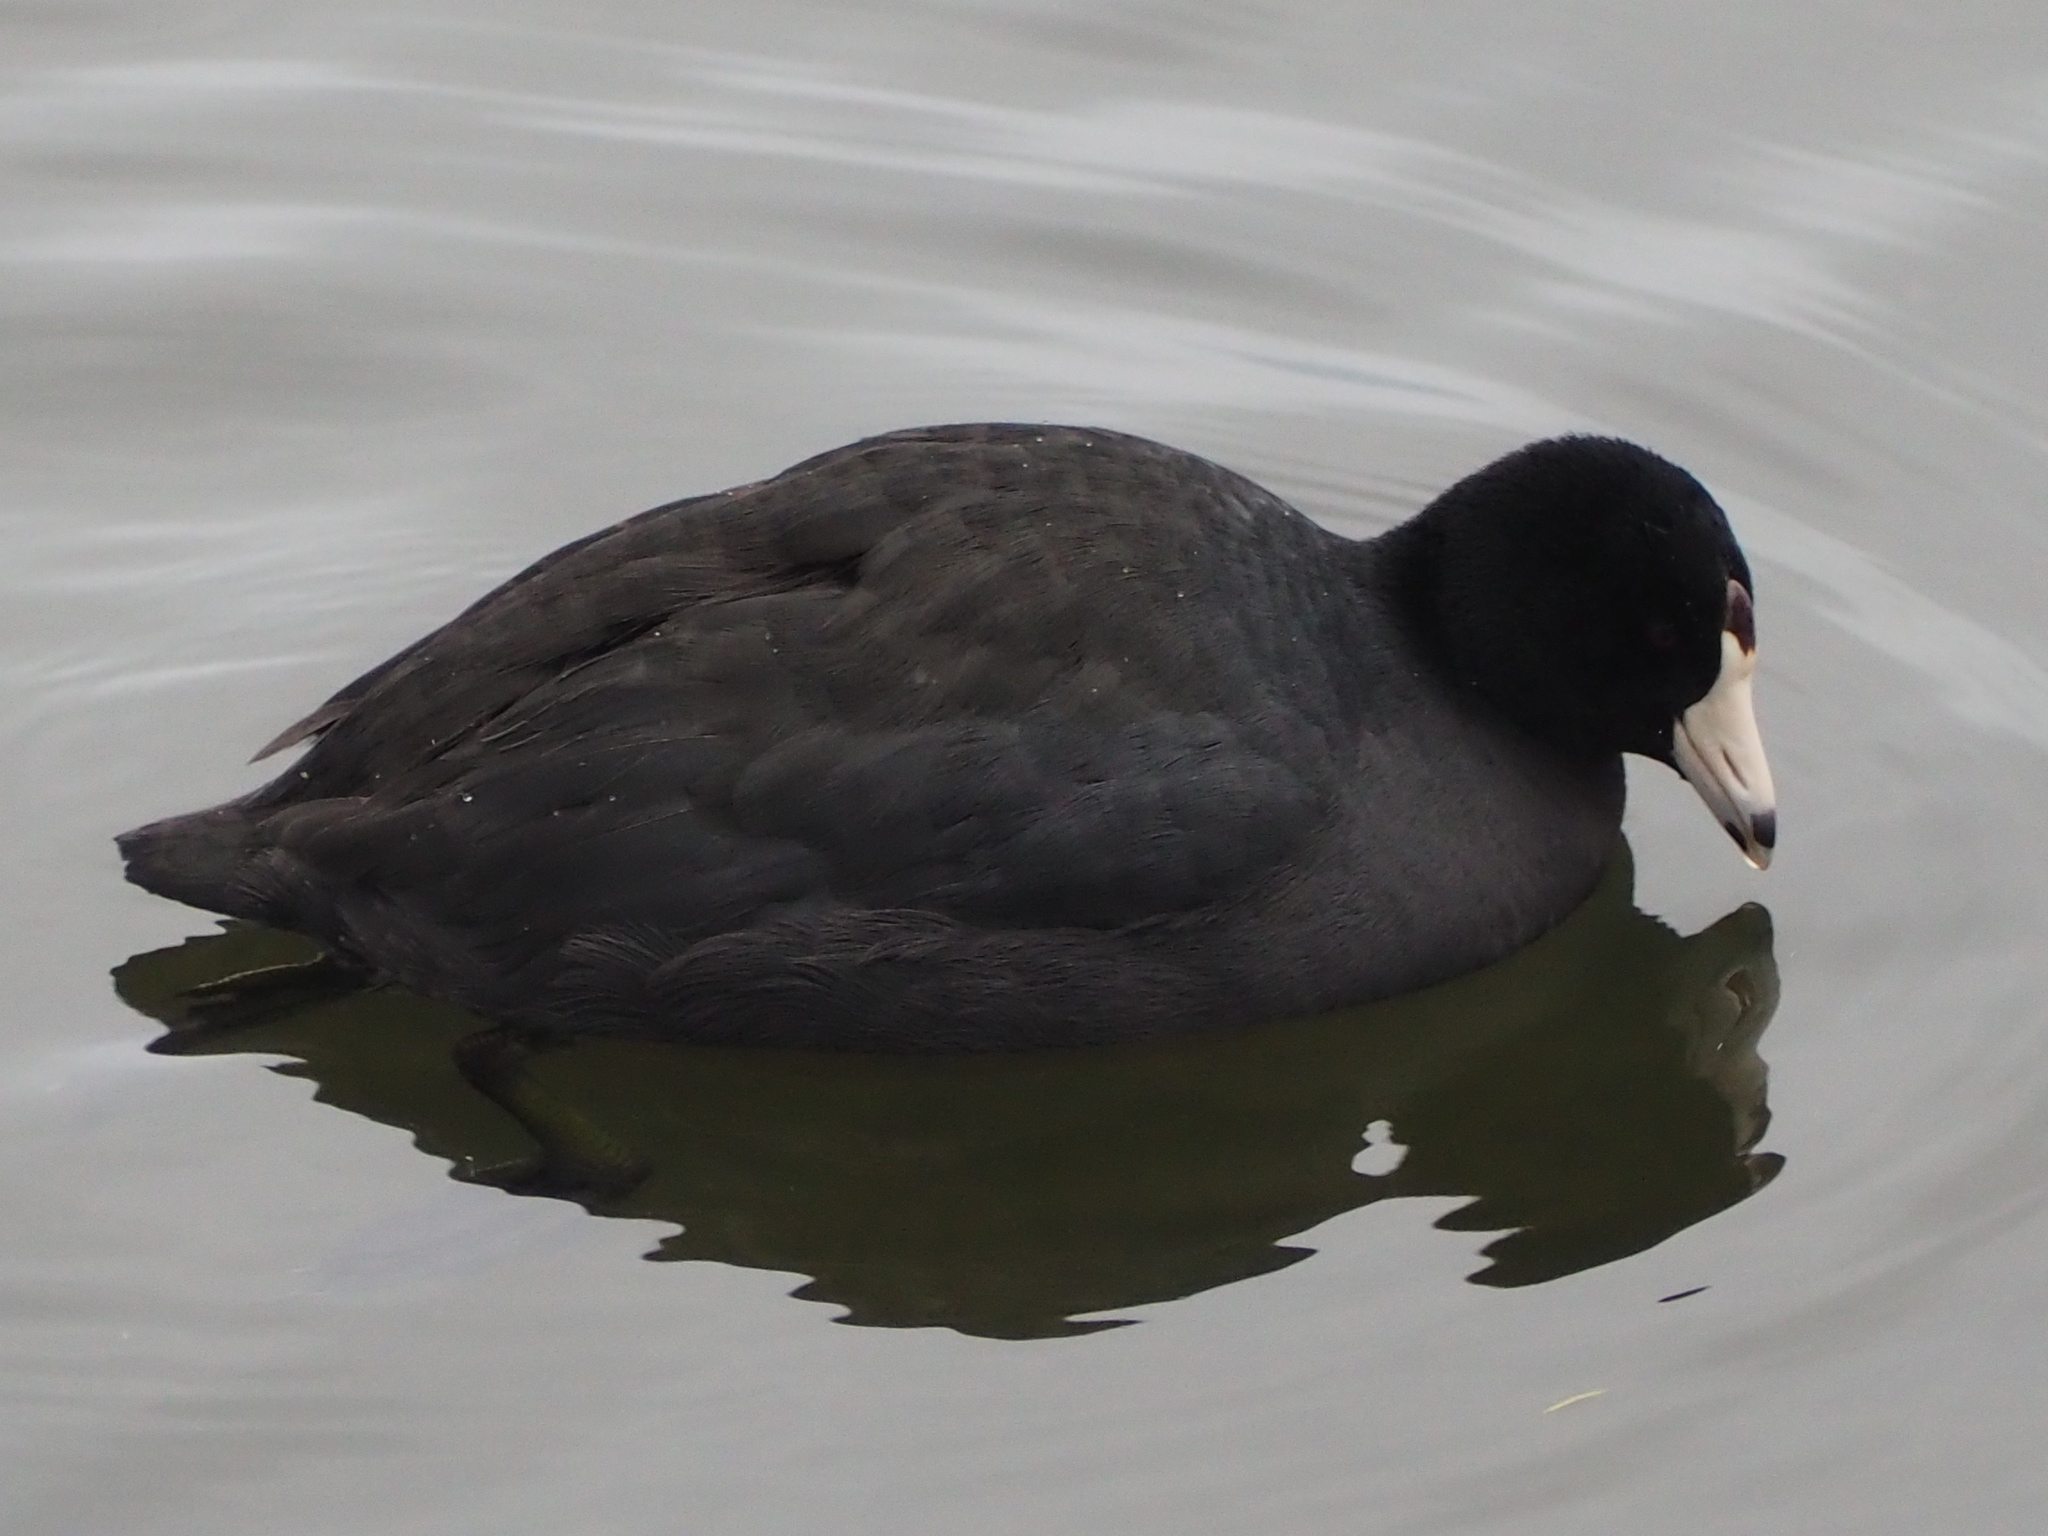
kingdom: Animalia
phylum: Chordata
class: Aves
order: Gruiformes
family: Rallidae
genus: Fulica
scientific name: Fulica americana
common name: American coot
